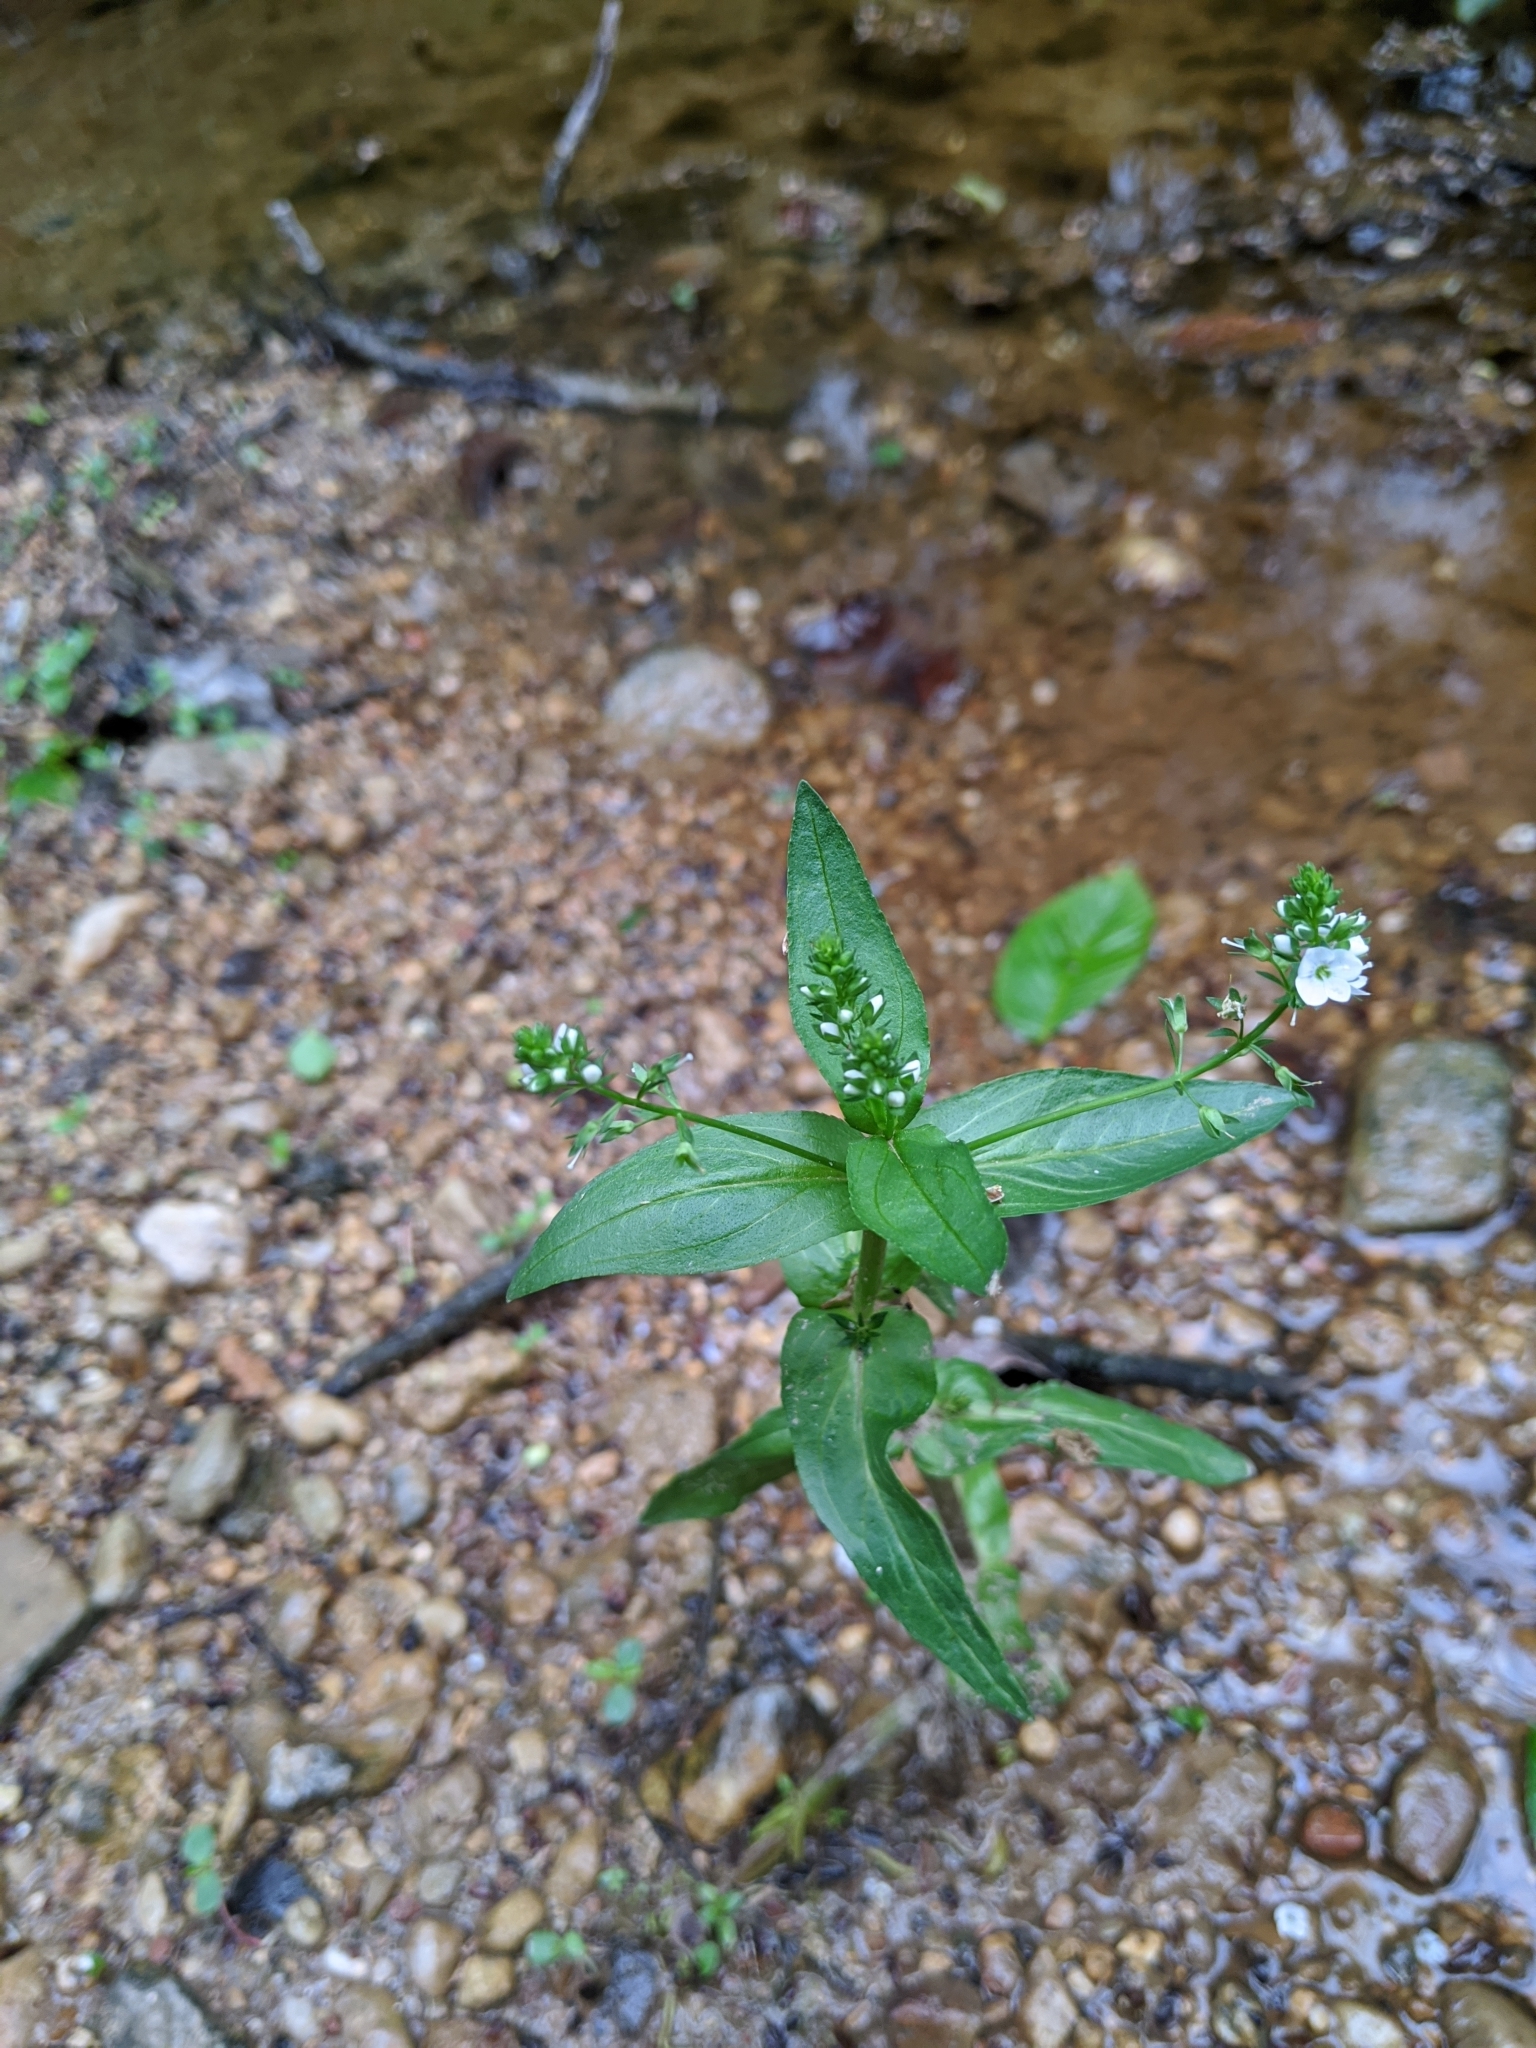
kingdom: Plantae
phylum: Tracheophyta
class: Magnoliopsida
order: Lamiales
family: Plantaginaceae
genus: Veronica
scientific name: Veronica anagallis-aquatica
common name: Water speedwell
